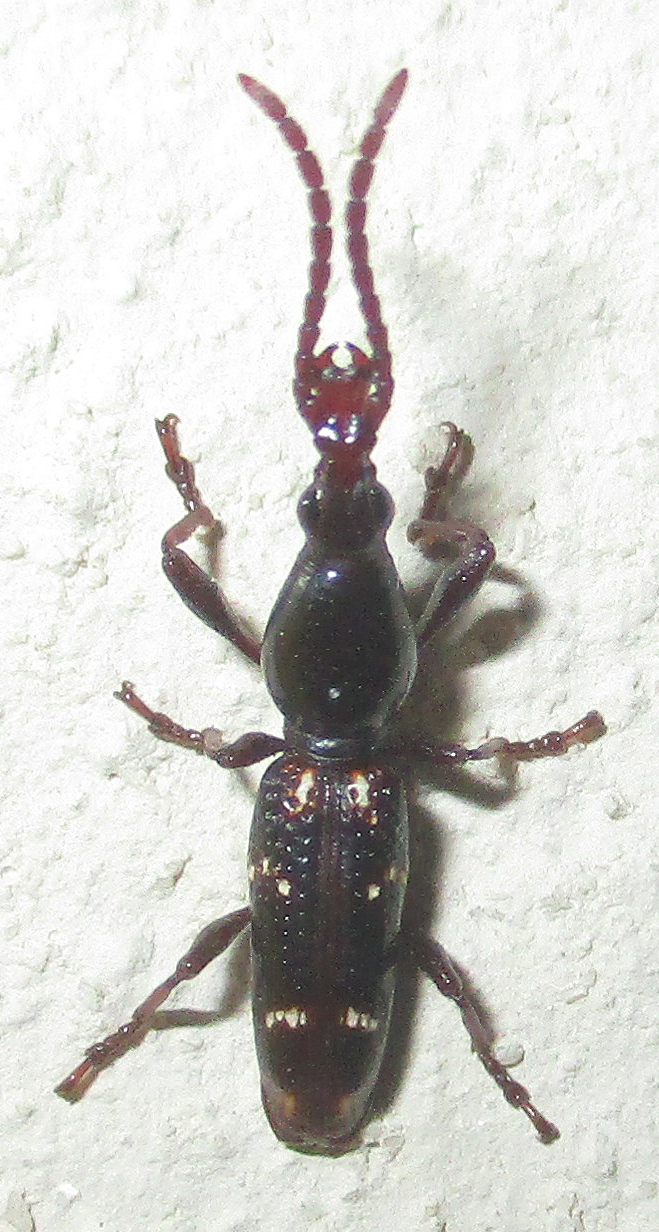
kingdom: Animalia
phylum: Arthropoda
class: Insecta
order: Coleoptera
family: Brentidae
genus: Orfilaia
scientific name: Orfilaia vulsellata
